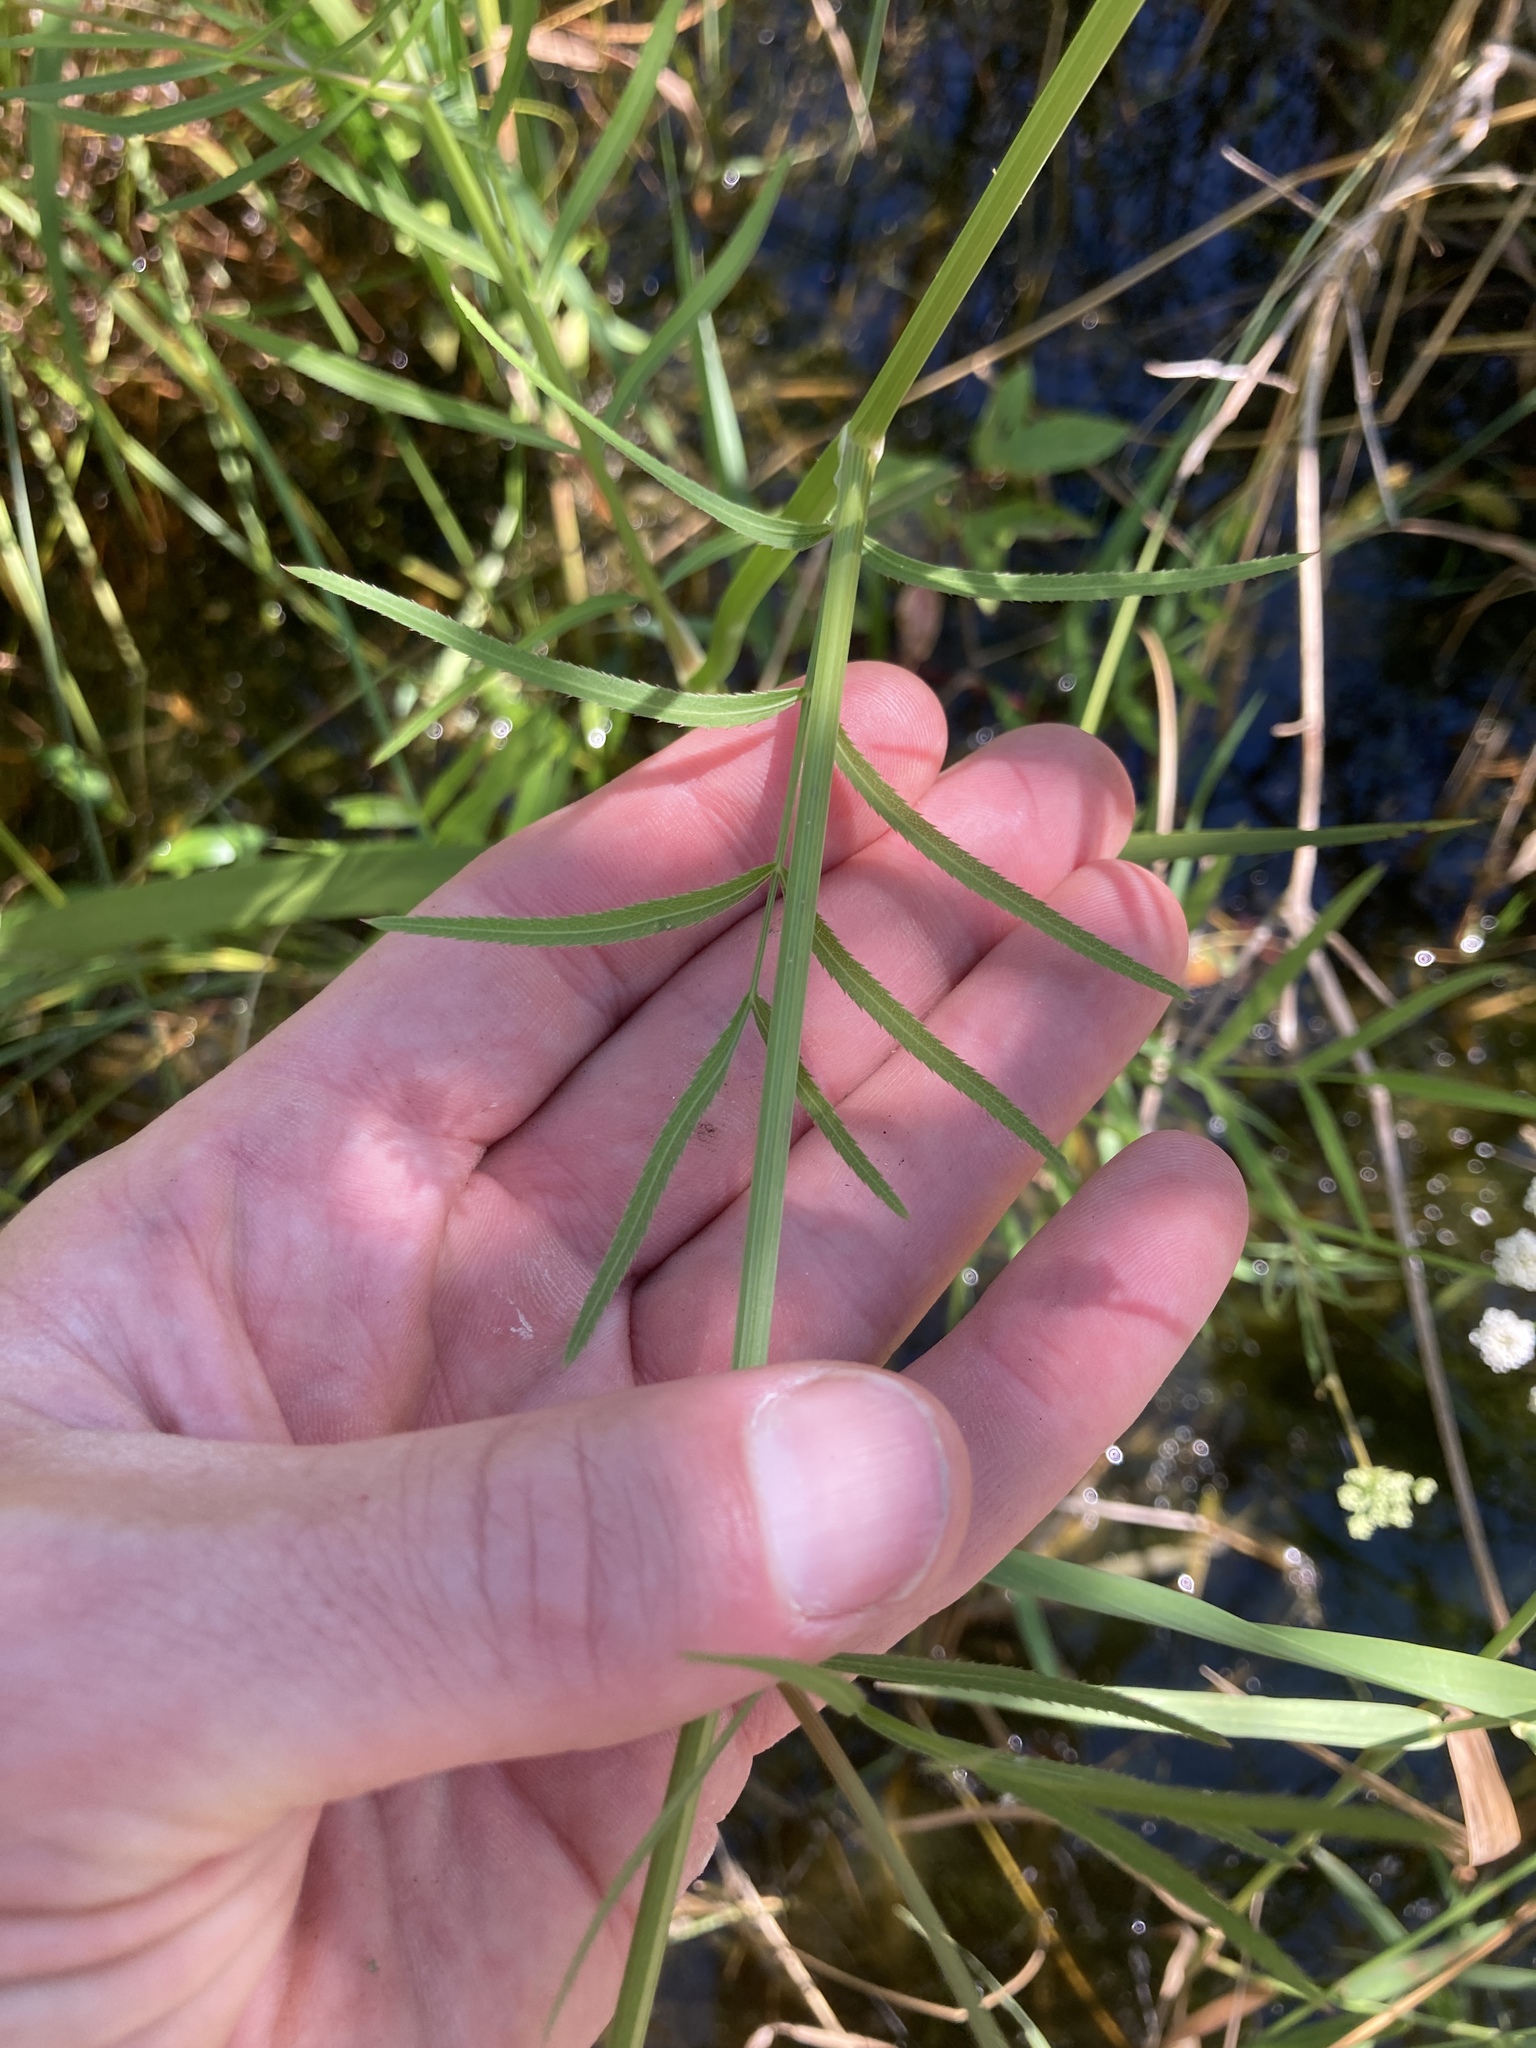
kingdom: Plantae
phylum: Tracheophyta
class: Magnoliopsida
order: Apiales
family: Apiaceae
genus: Sium
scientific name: Sium suave
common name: Hemlock water-parsnip
